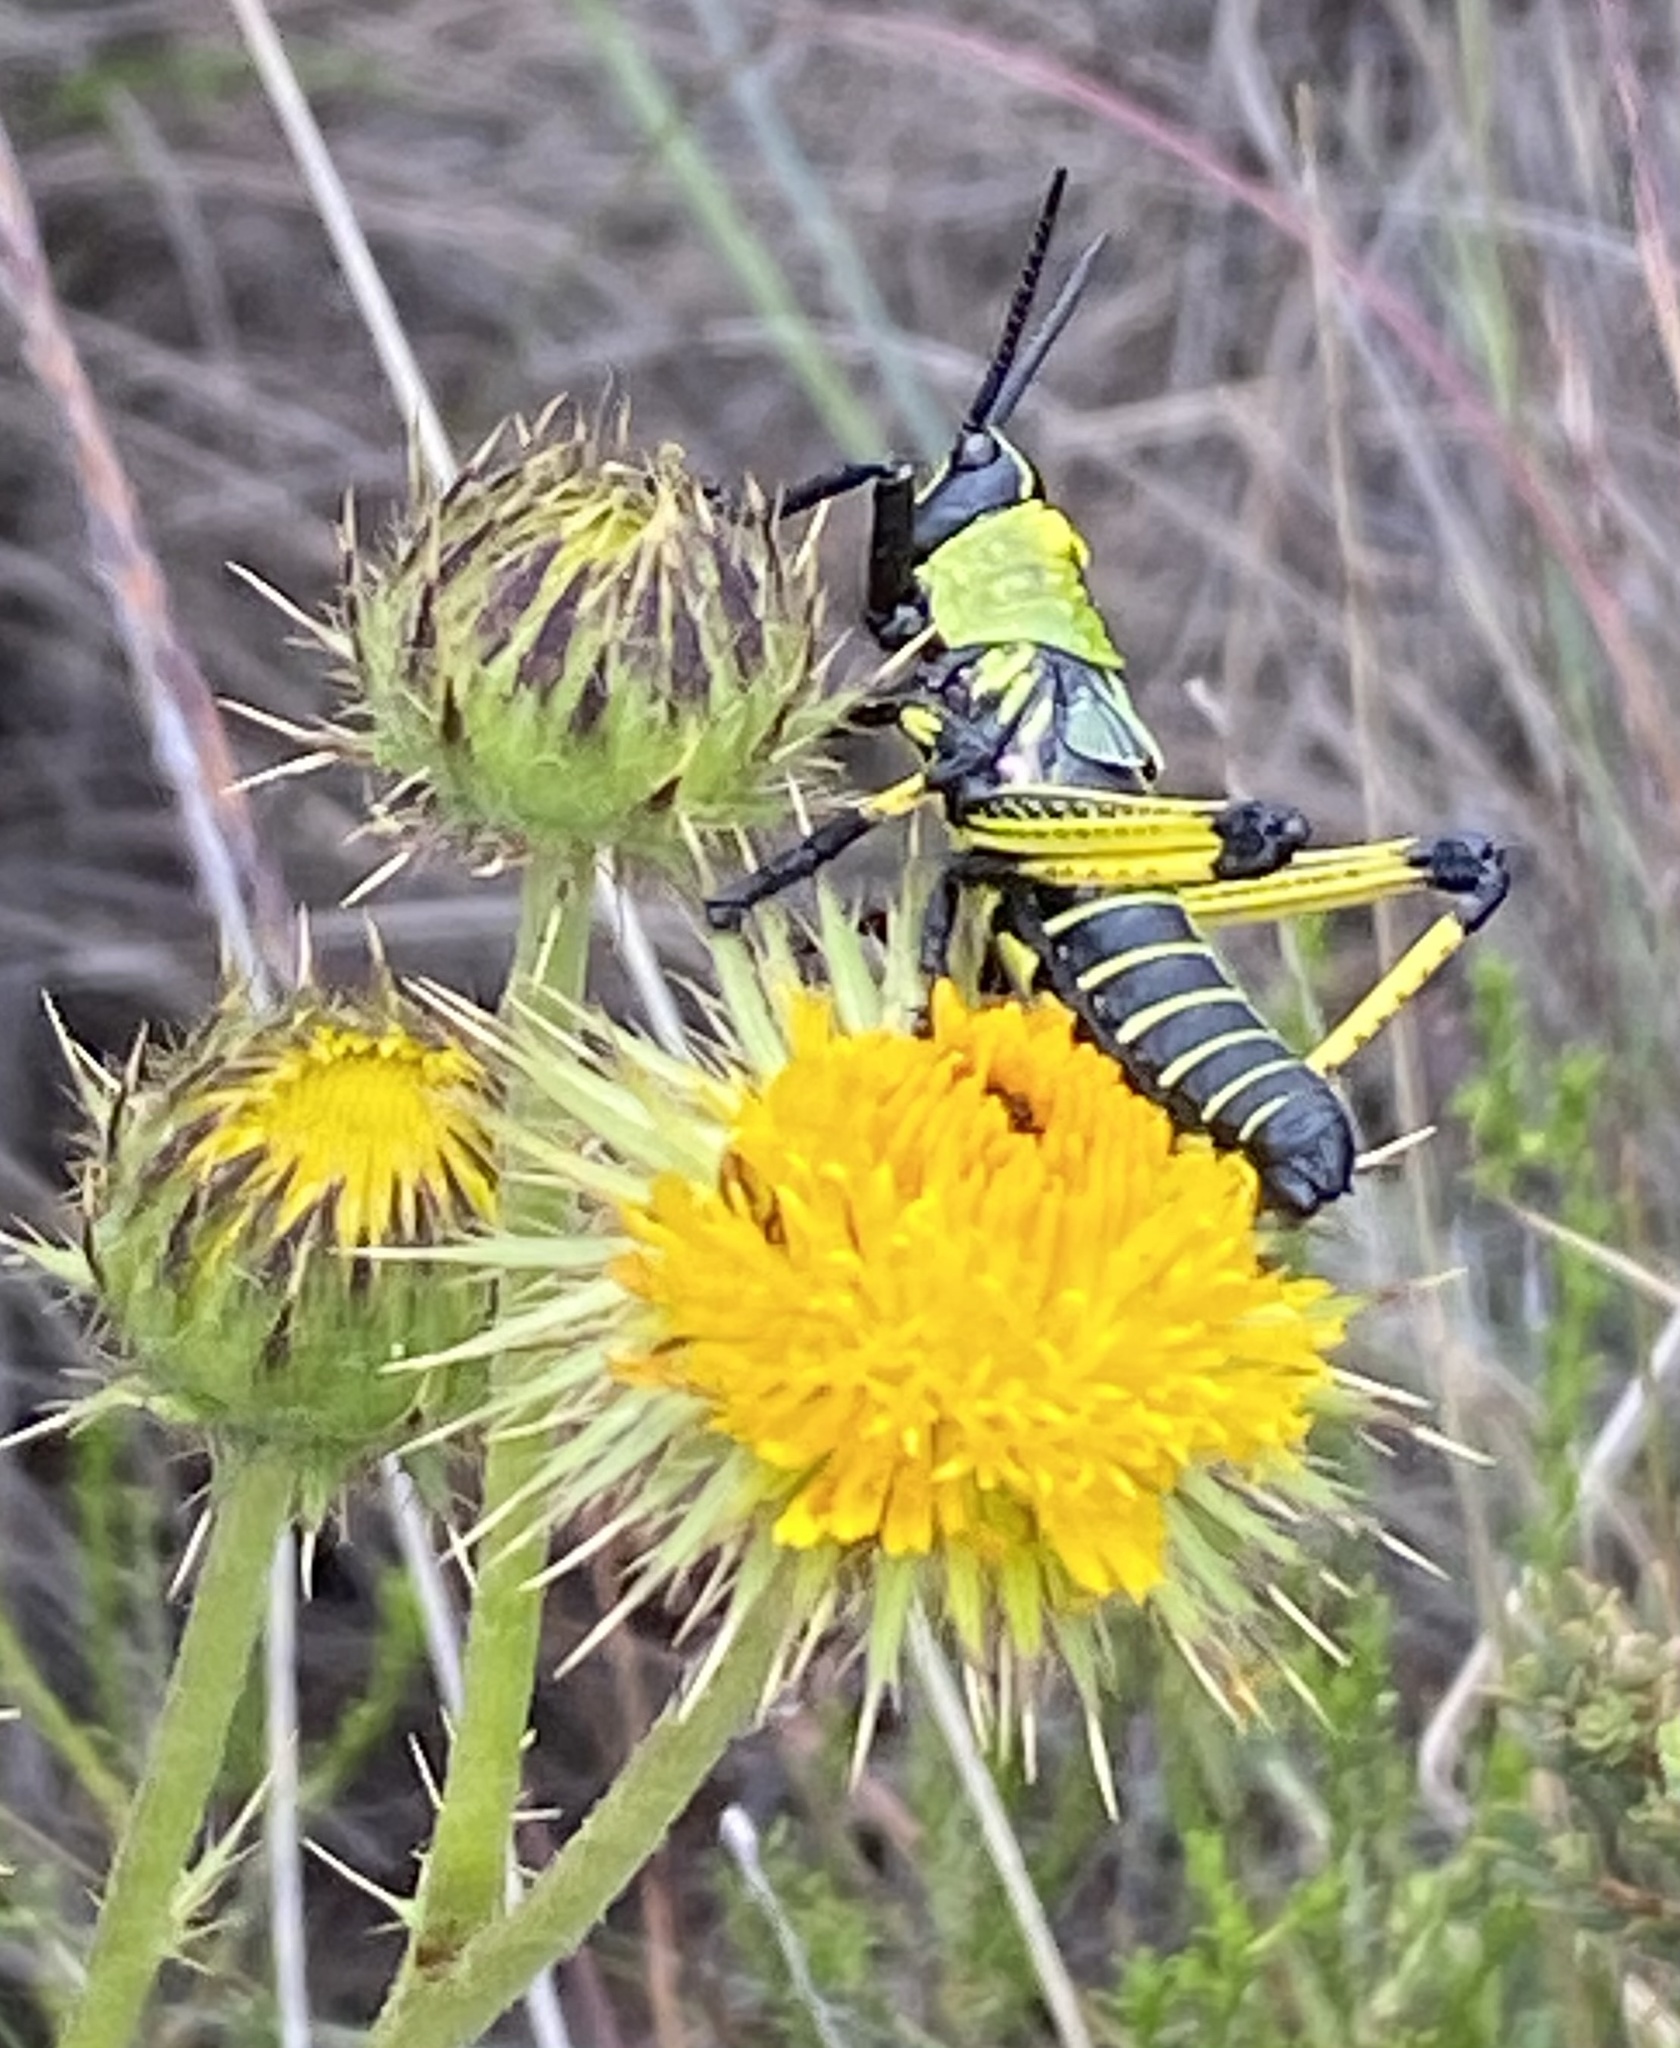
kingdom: Animalia
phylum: Arthropoda
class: Insecta
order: Orthoptera
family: Pyrgomorphidae
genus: Phymateus
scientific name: Phymateus leprosus
